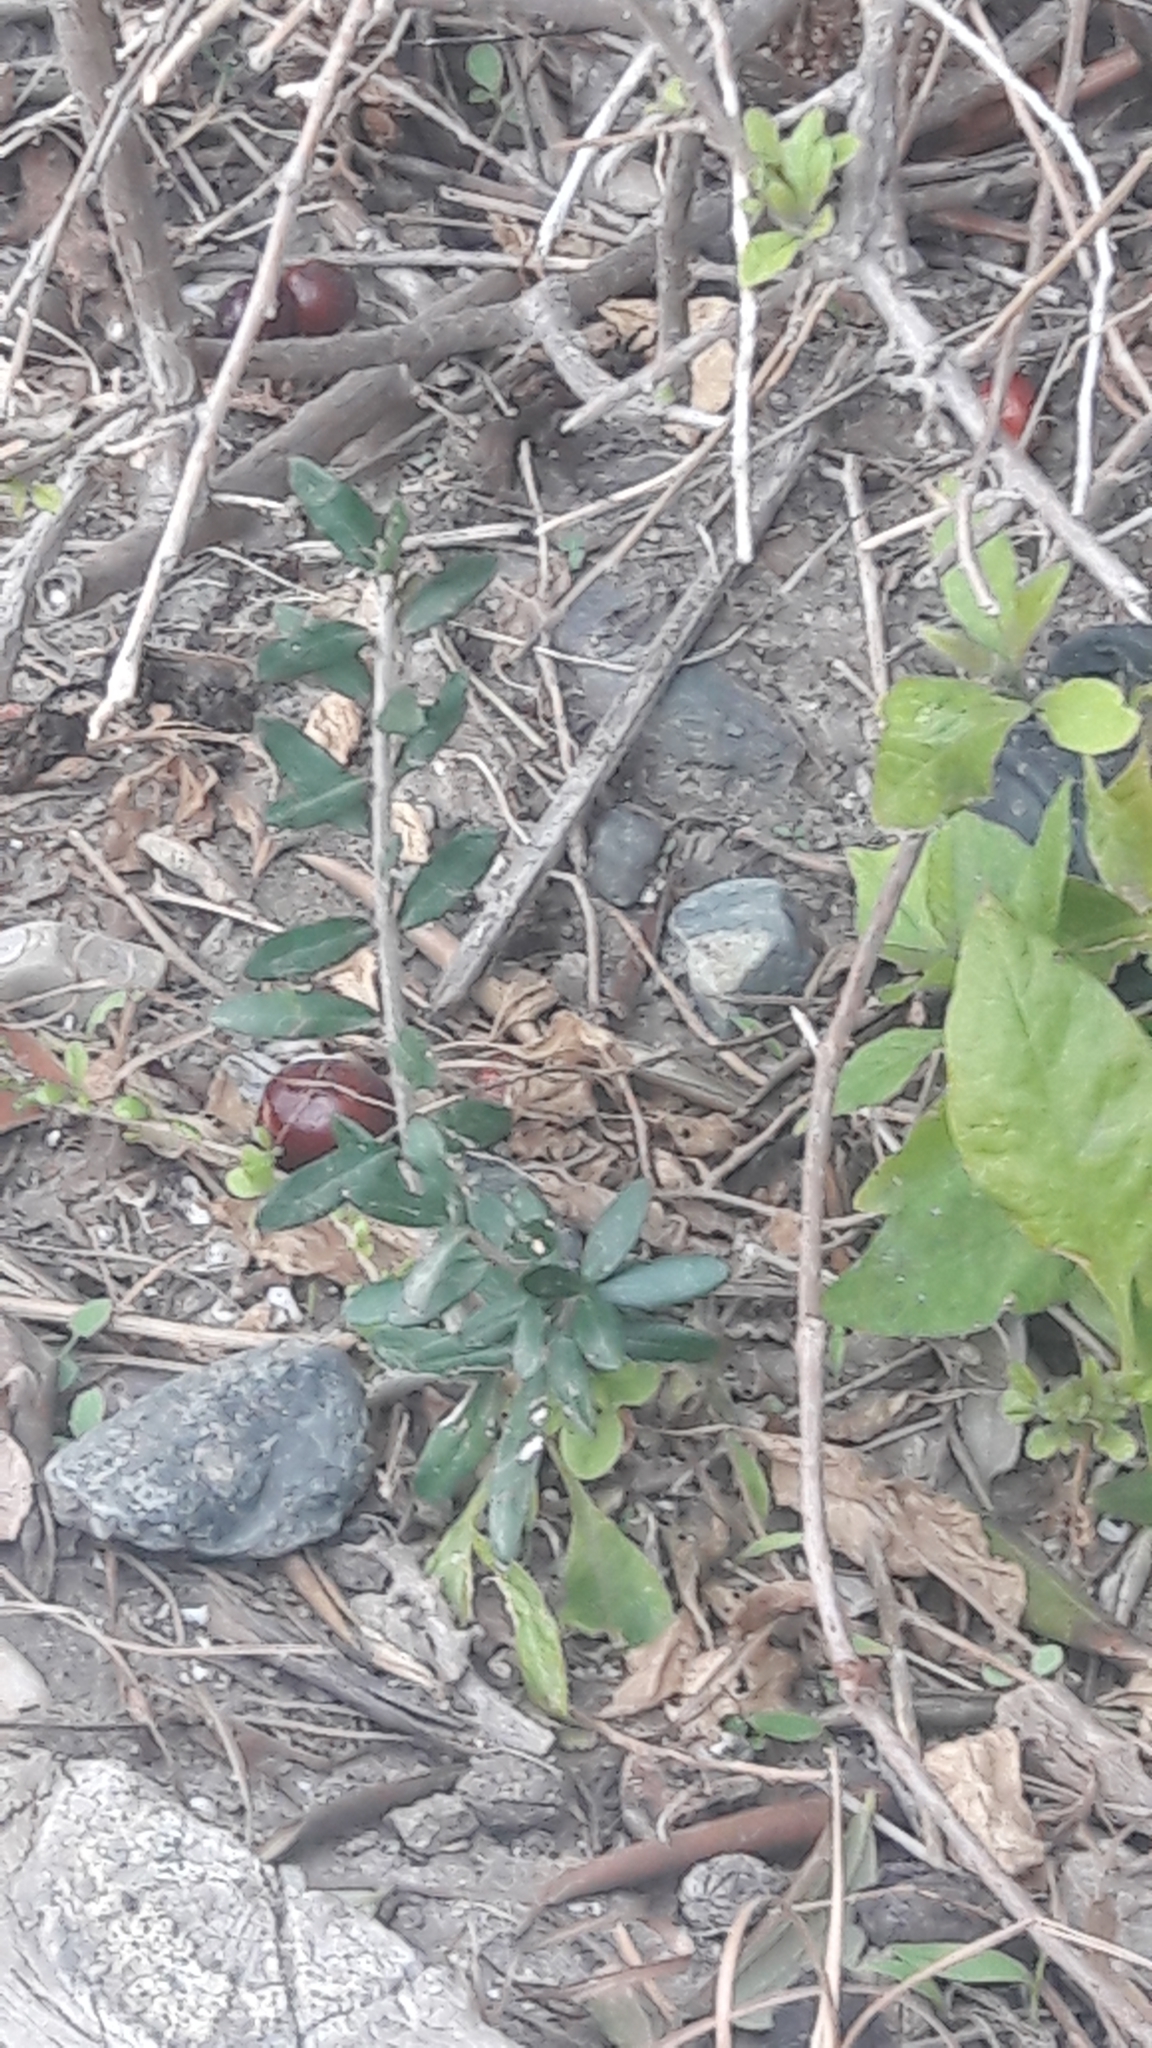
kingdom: Animalia
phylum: Chordata
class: Mammalia
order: Rodentia
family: Muridae
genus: Rattus
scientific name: Rattus rattus
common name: Black rat
